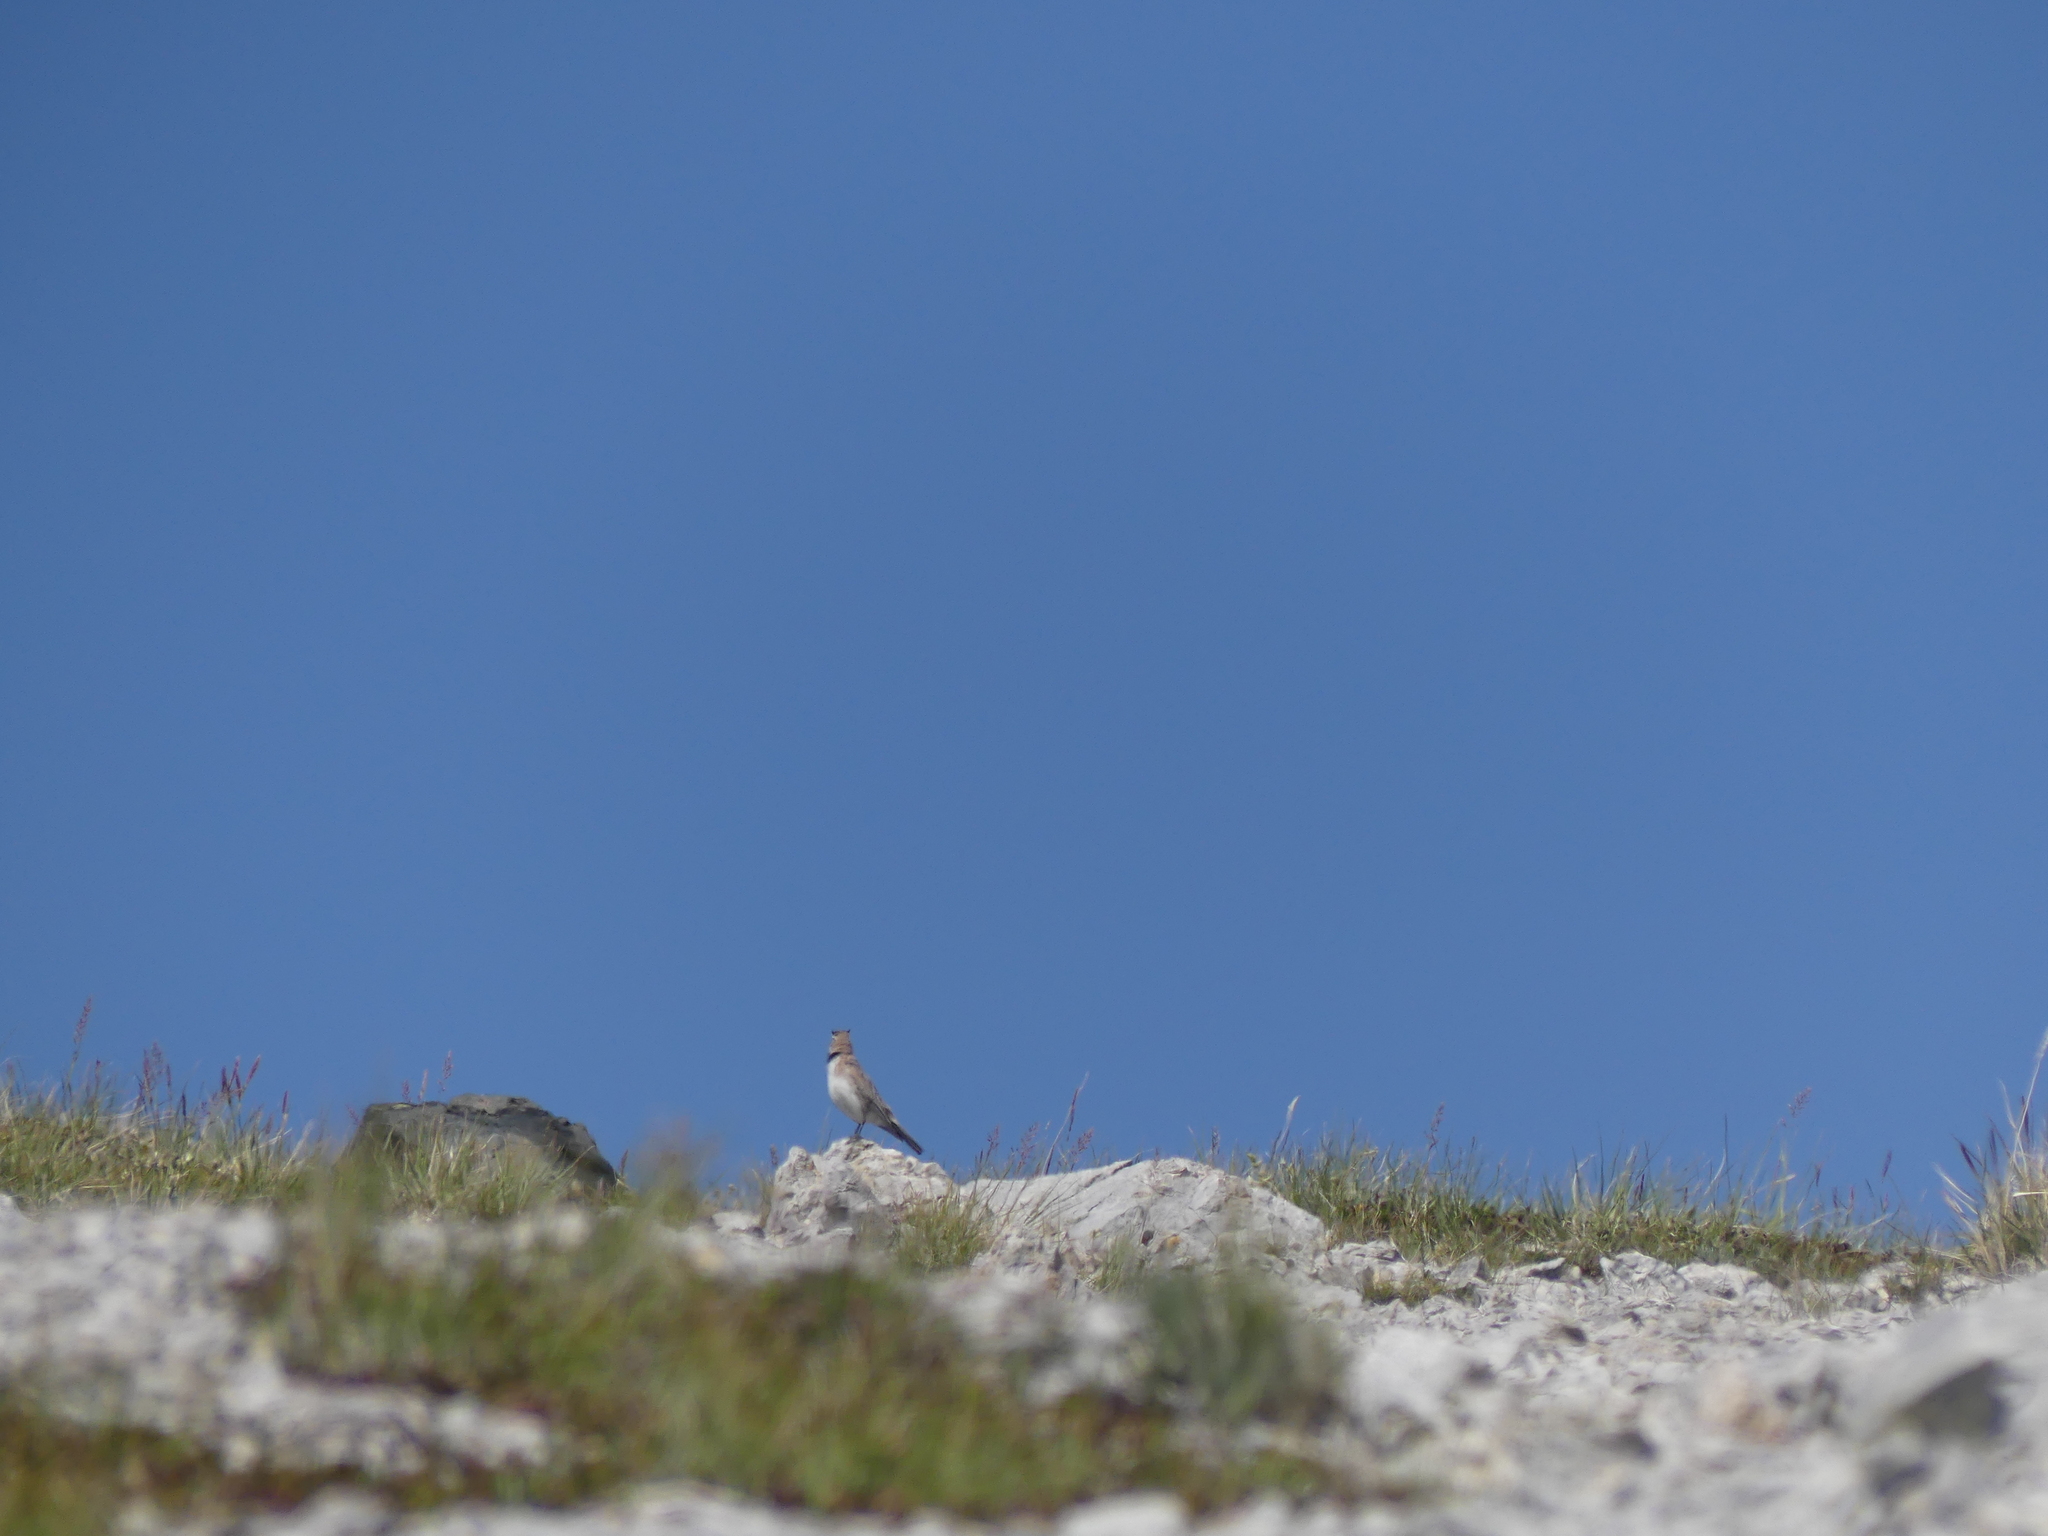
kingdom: Animalia
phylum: Chordata
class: Aves
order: Passeriformes
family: Alaudidae
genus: Eremophila
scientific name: Eremophila alpestris
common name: Horned lark
